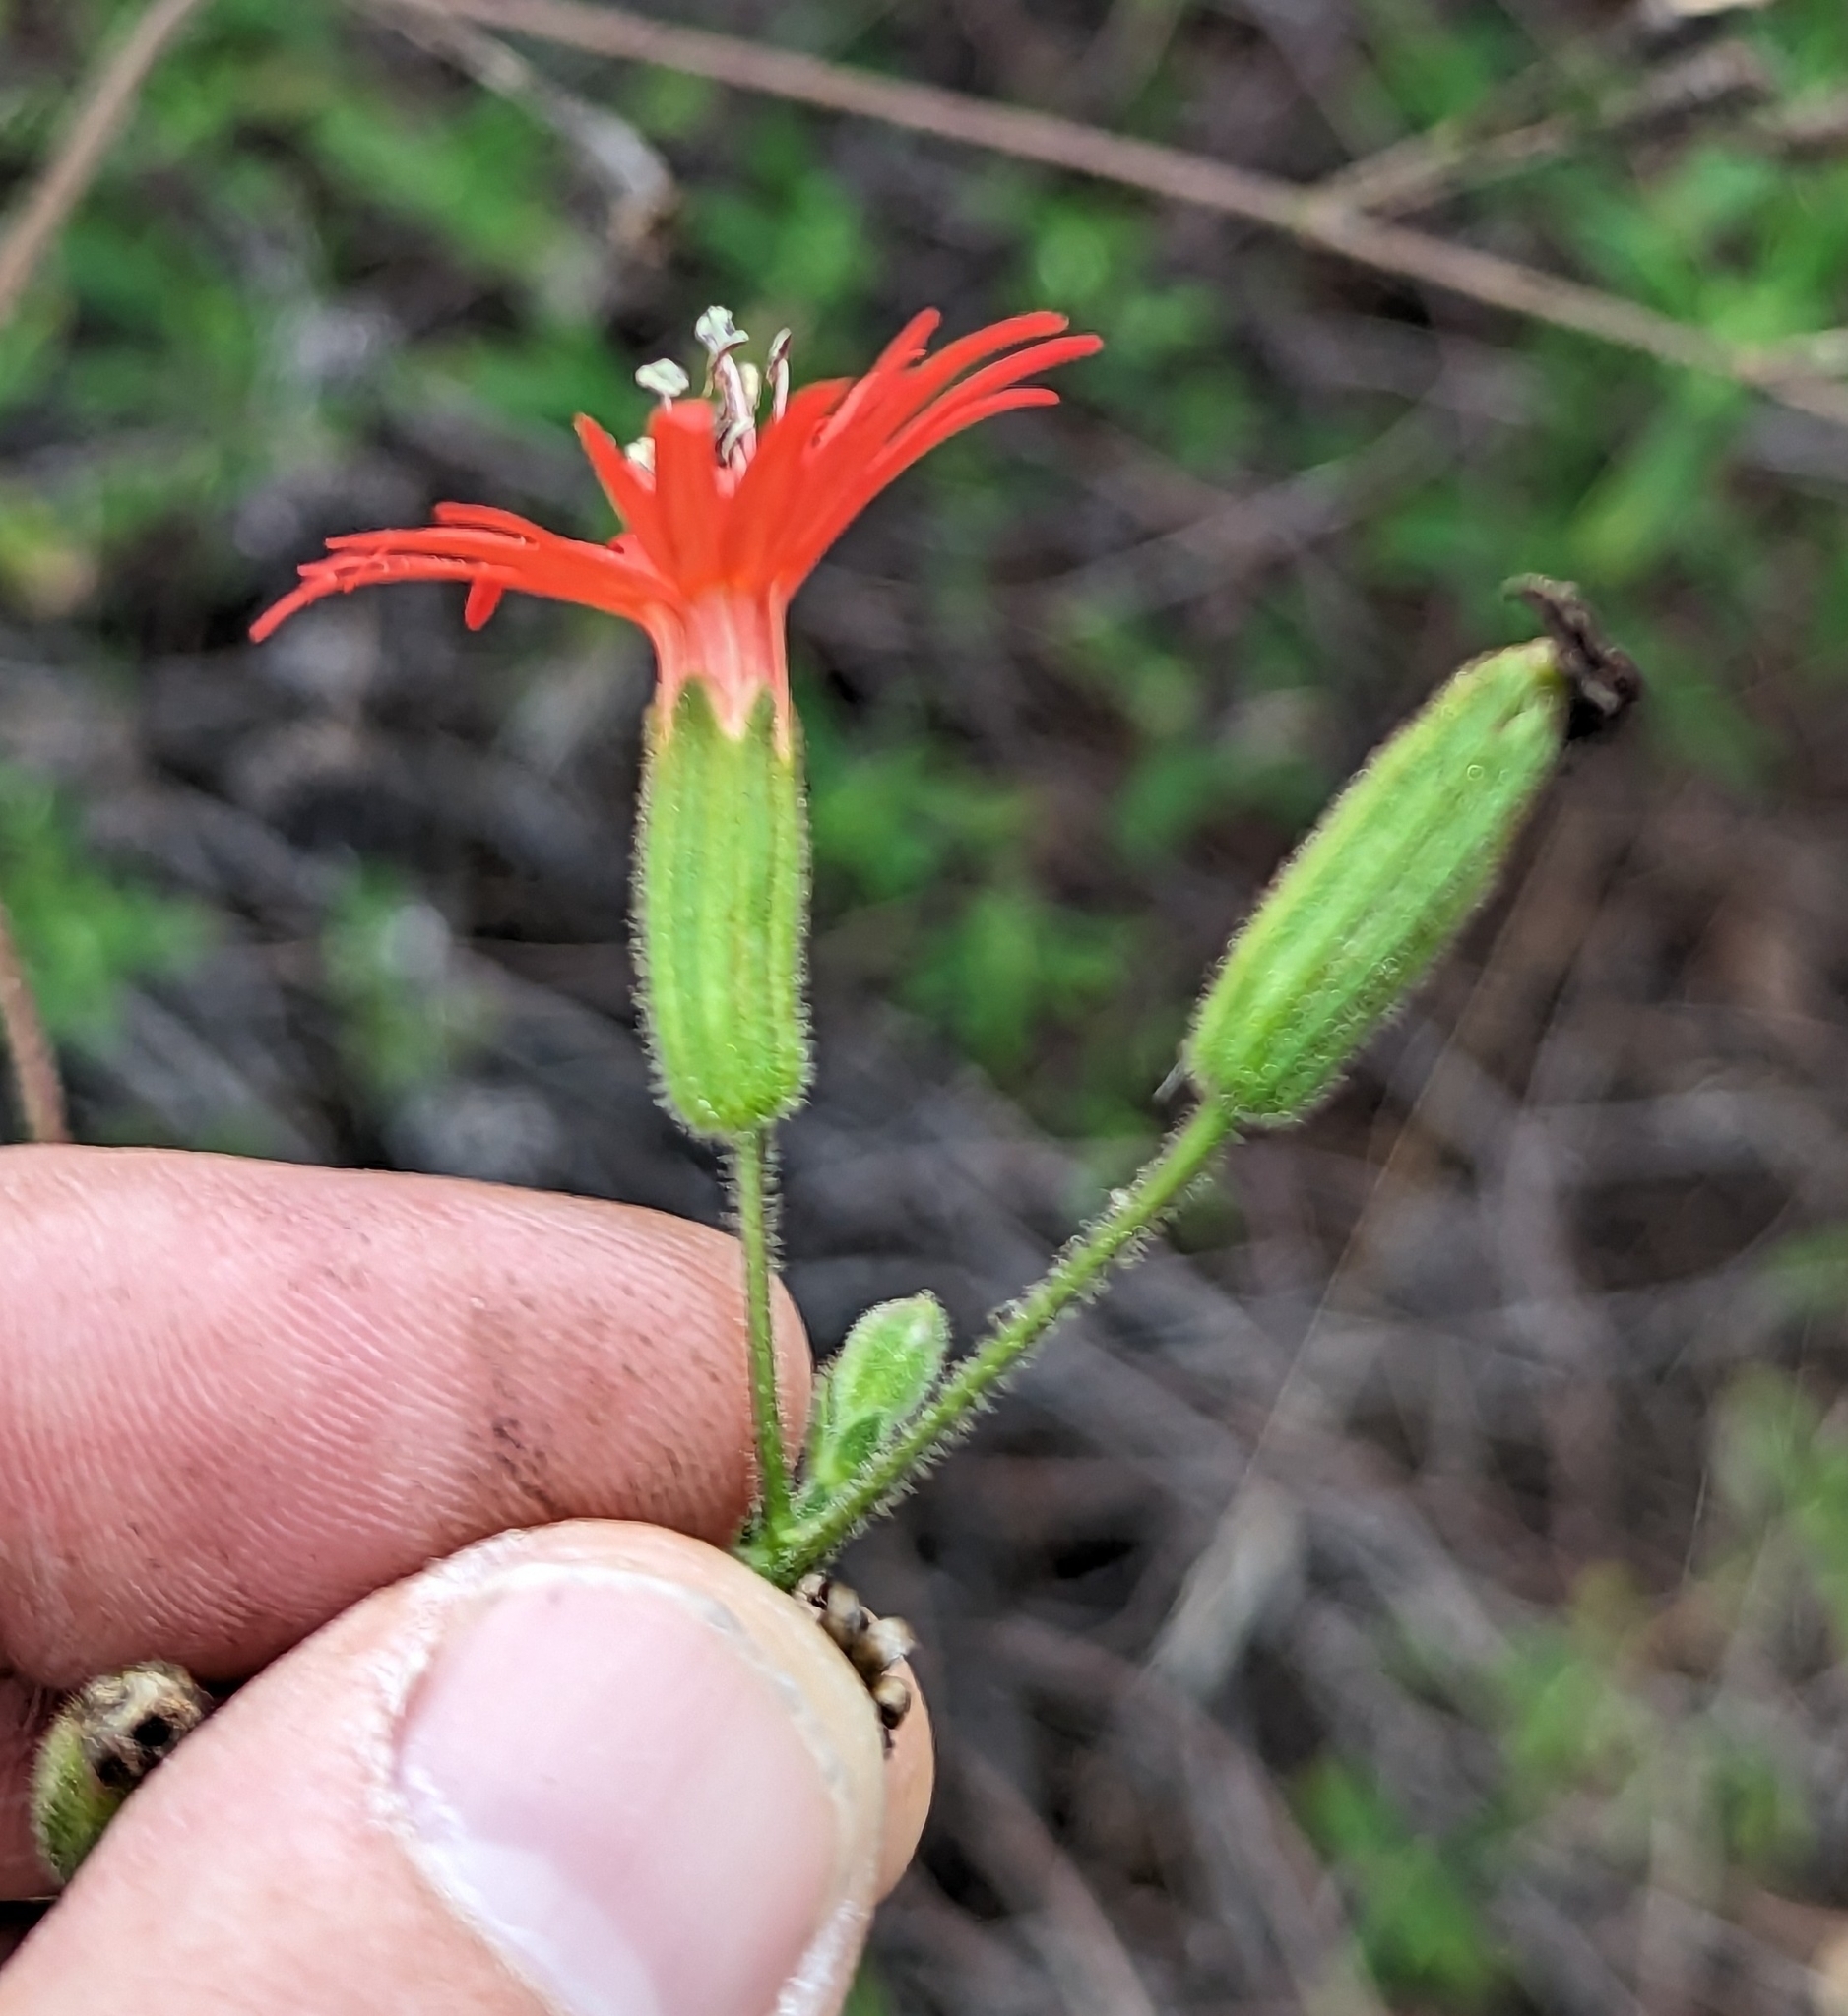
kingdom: Plantae
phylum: Tracheophyta
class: Magnoliopsida
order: Caryophyllales
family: Caryophyllaceae
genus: Silene
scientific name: Silene laciniata
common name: Indian-pink
